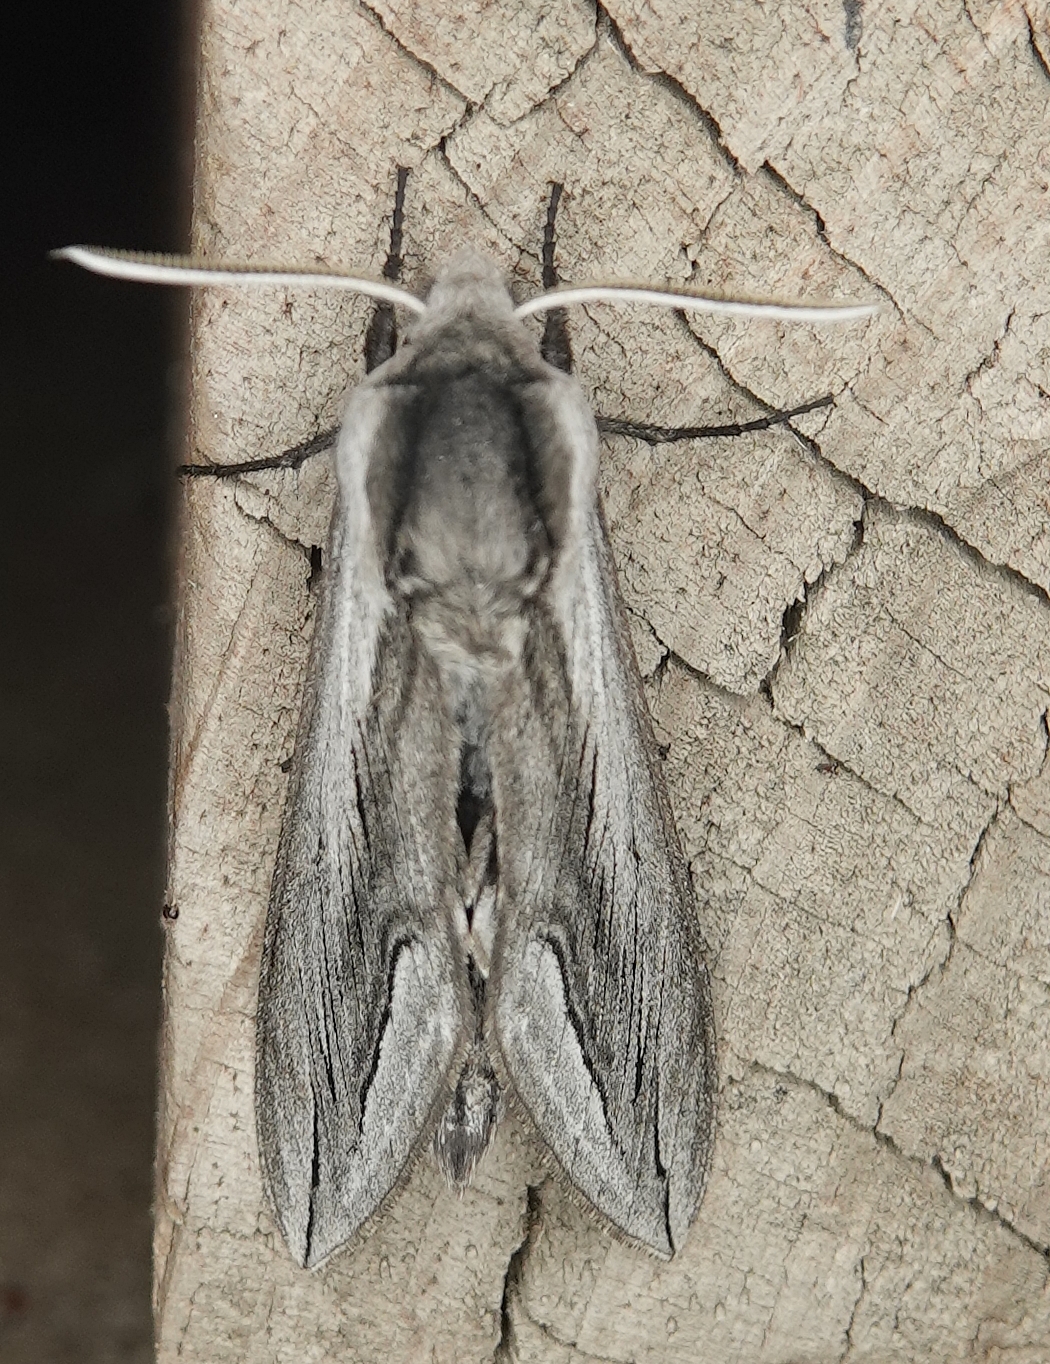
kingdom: Animalia
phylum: Arthropoda
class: Insecta
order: Lepidoptera
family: Sphingidae
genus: Sphinx
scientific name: Sphinx vashti
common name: Snowberry sphinx
